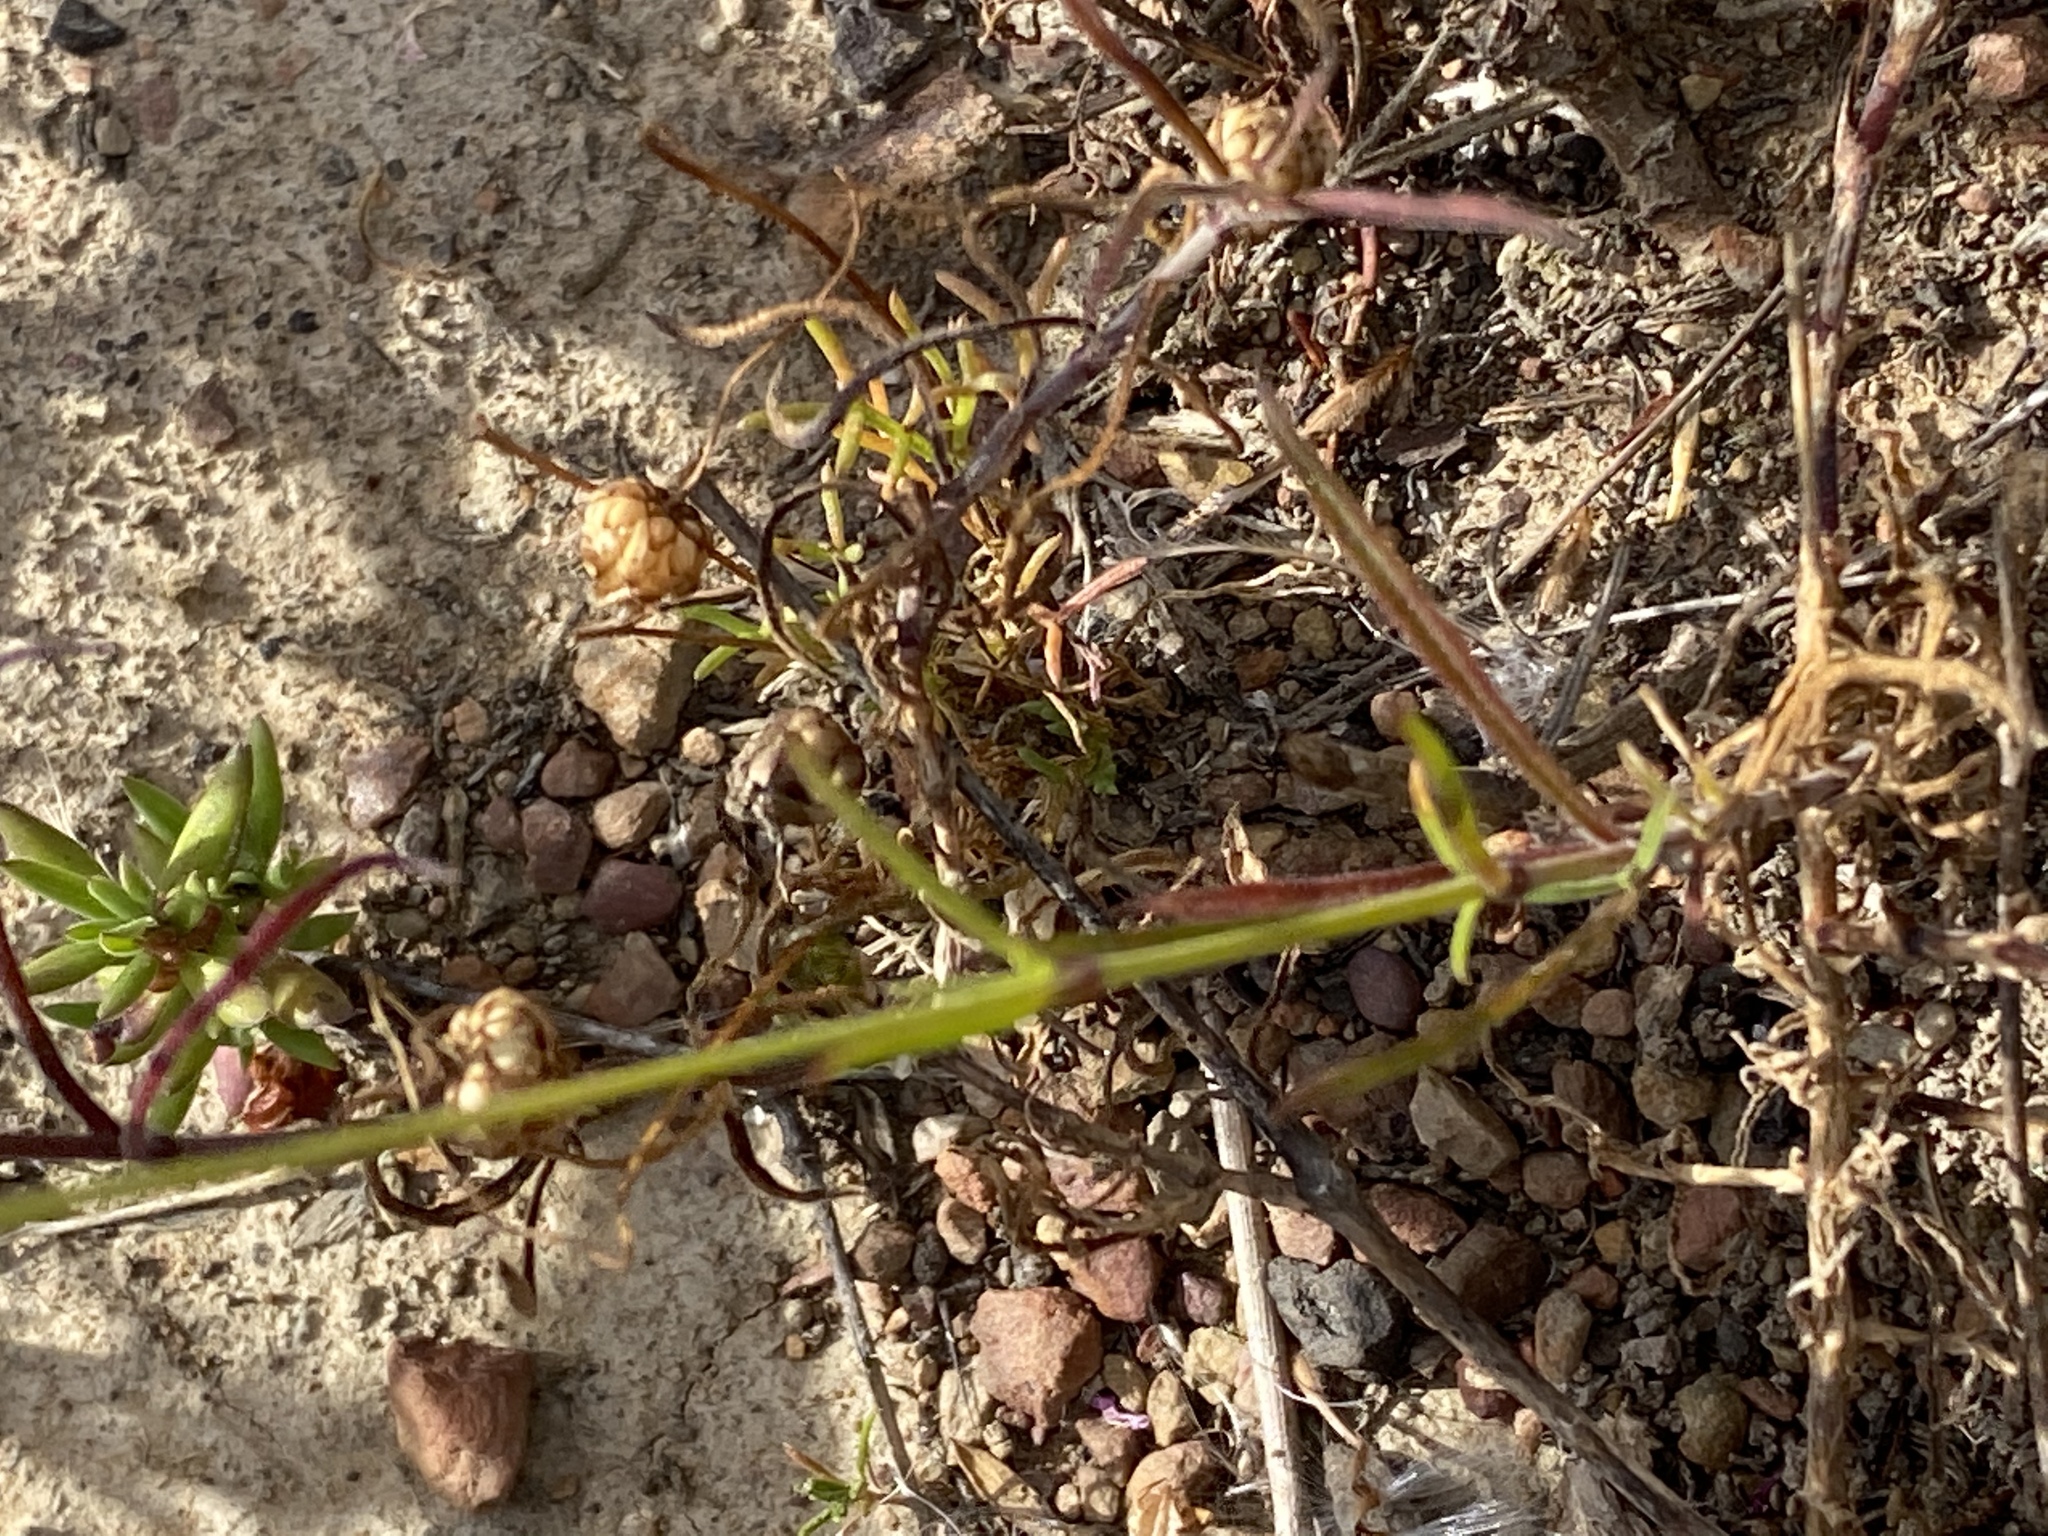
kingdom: Plantae
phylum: Tracheophyta
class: Magnoliopsida
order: Caryophyllales
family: Caryophyllaceae
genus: Silene
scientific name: Silene burchellii
